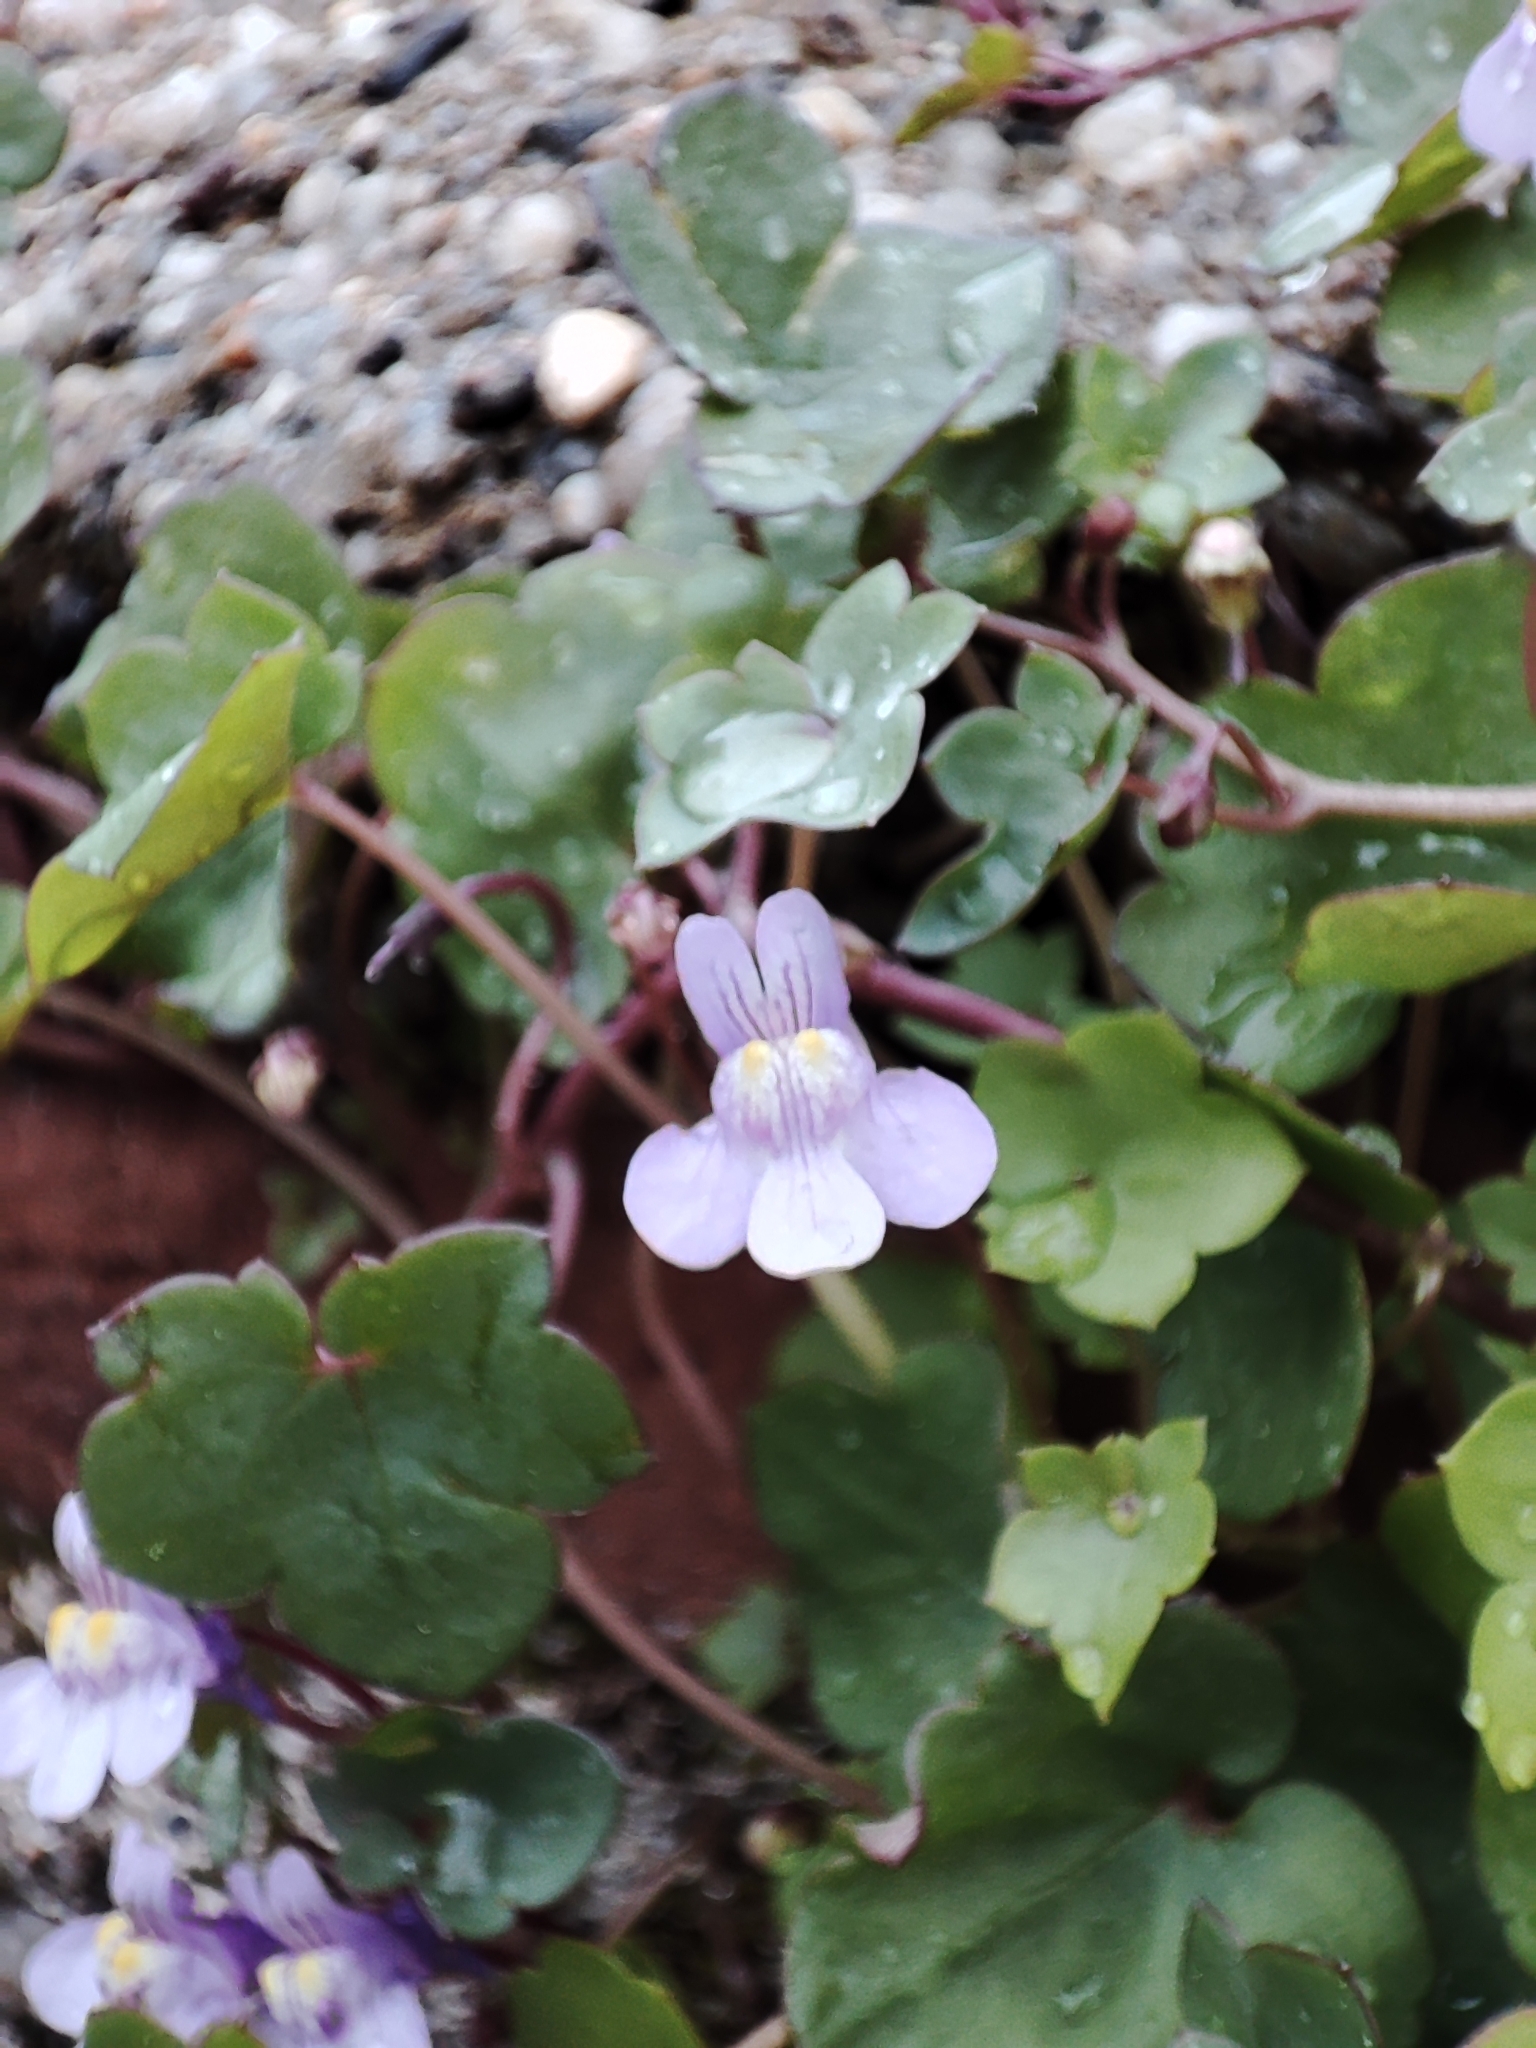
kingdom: Plantae
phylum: Tracheophyta
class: Magnoliopsida
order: Lamiales
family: Plantaginaceae
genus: Cymbalaria
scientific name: Cymbalaria muralis
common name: Ivy-leaved toadflax
